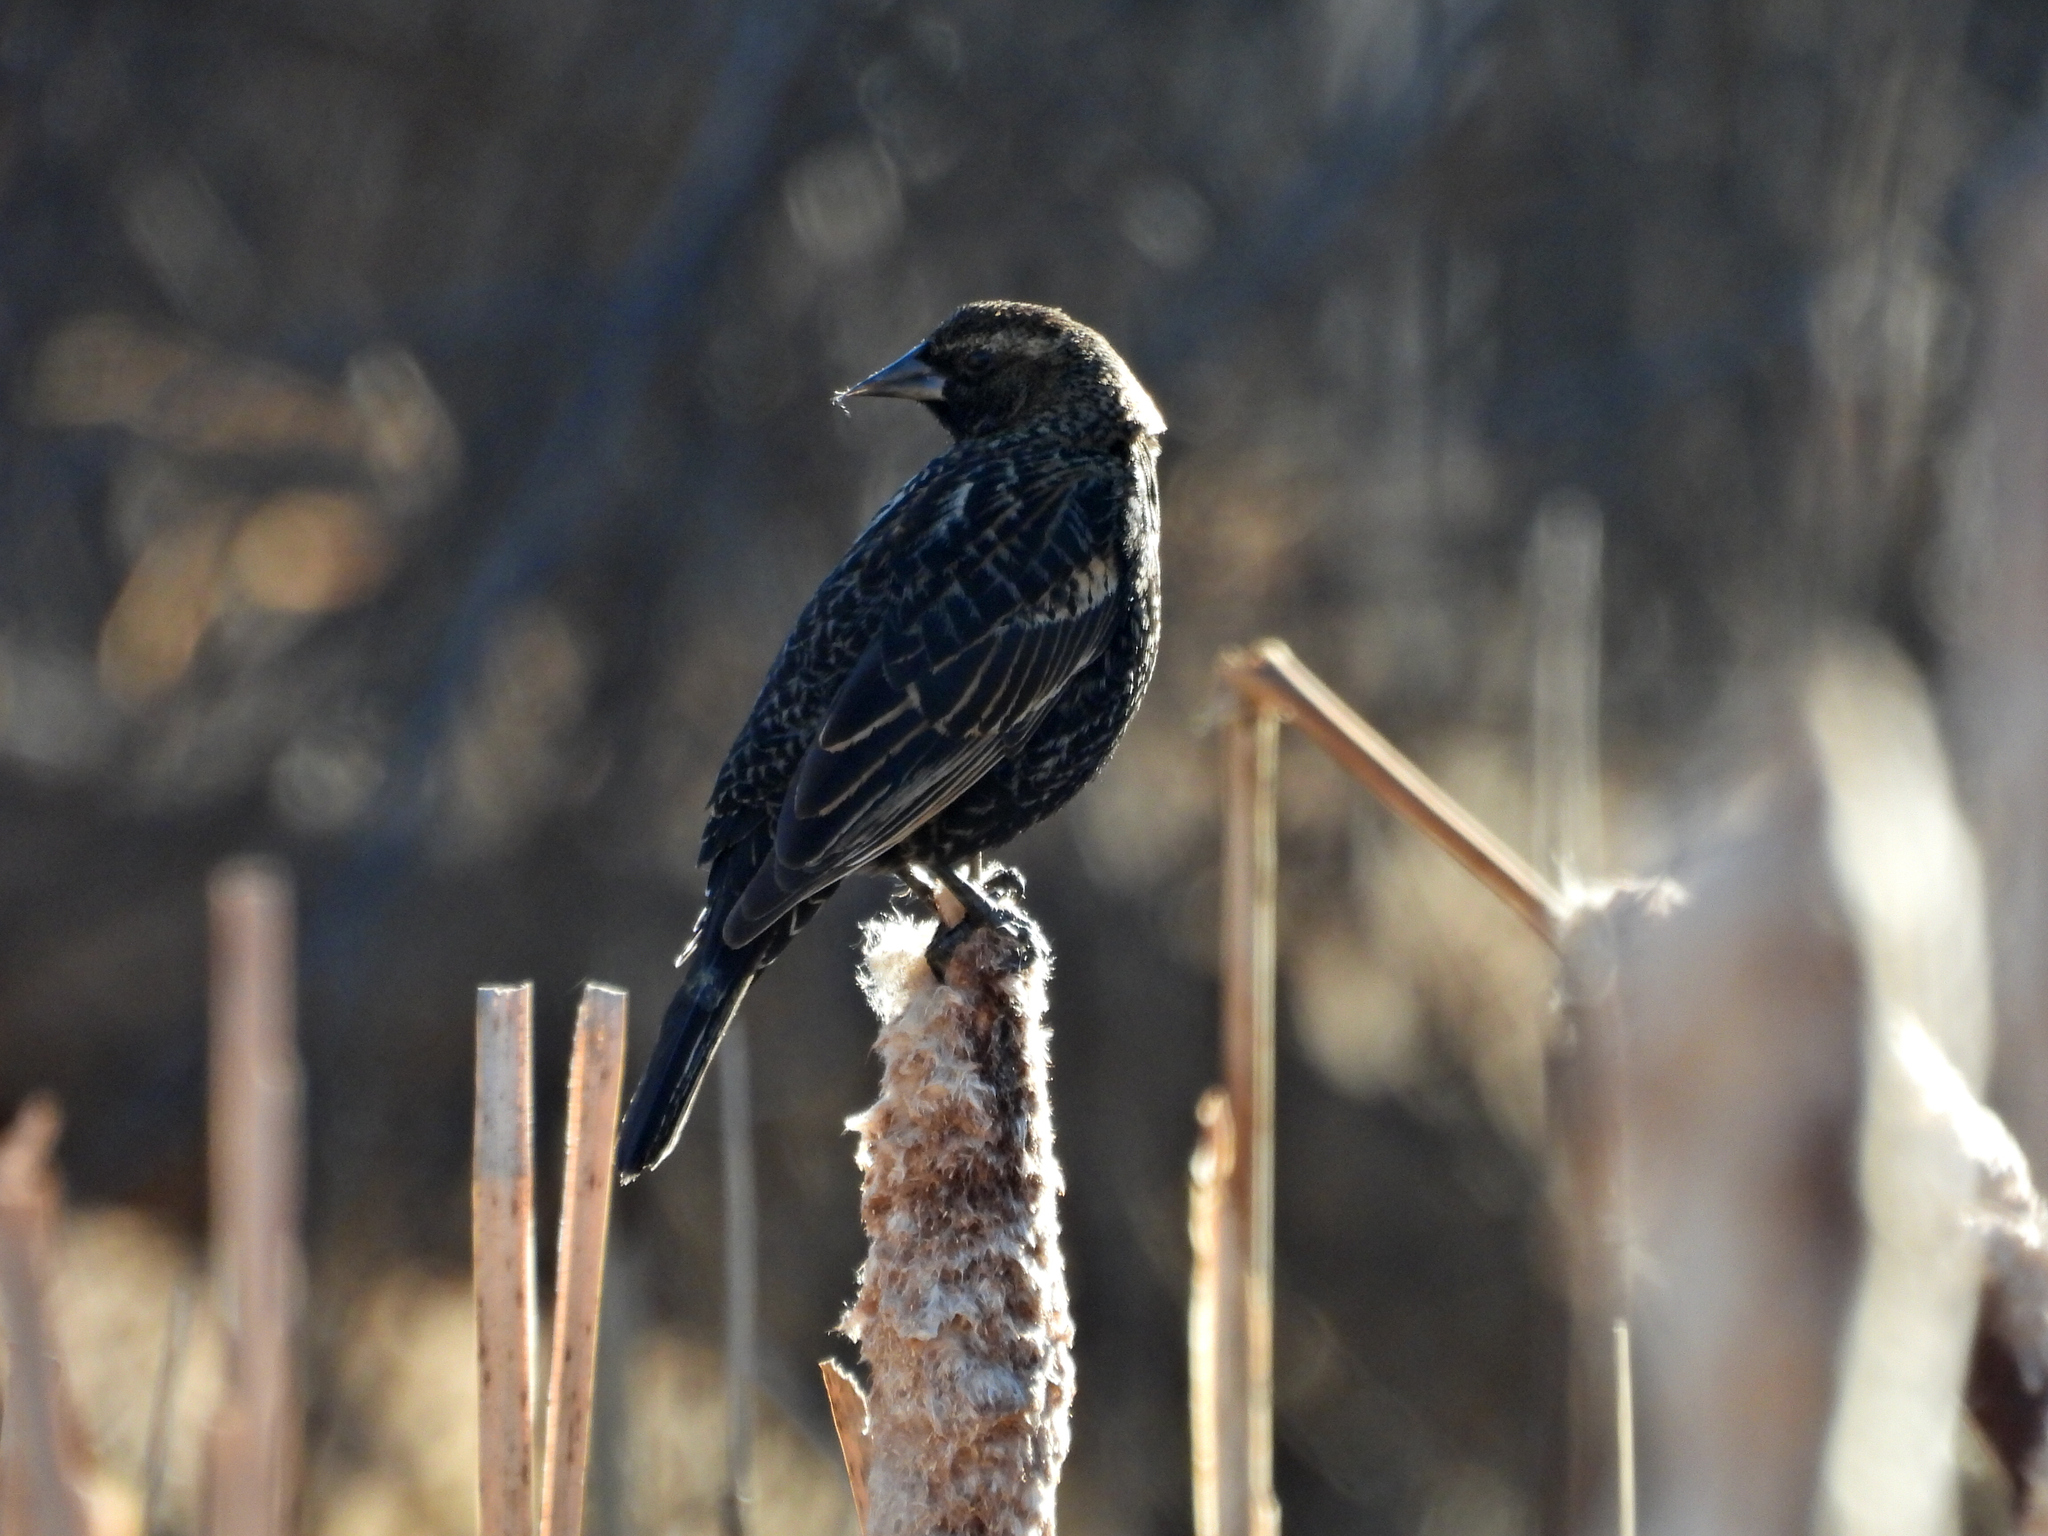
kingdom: Animalia
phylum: Chordata
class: Aves
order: Passeriformes
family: Icteridae
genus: Agelaius
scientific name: Agelaius phoeniceus
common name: Red-winged blackbird
